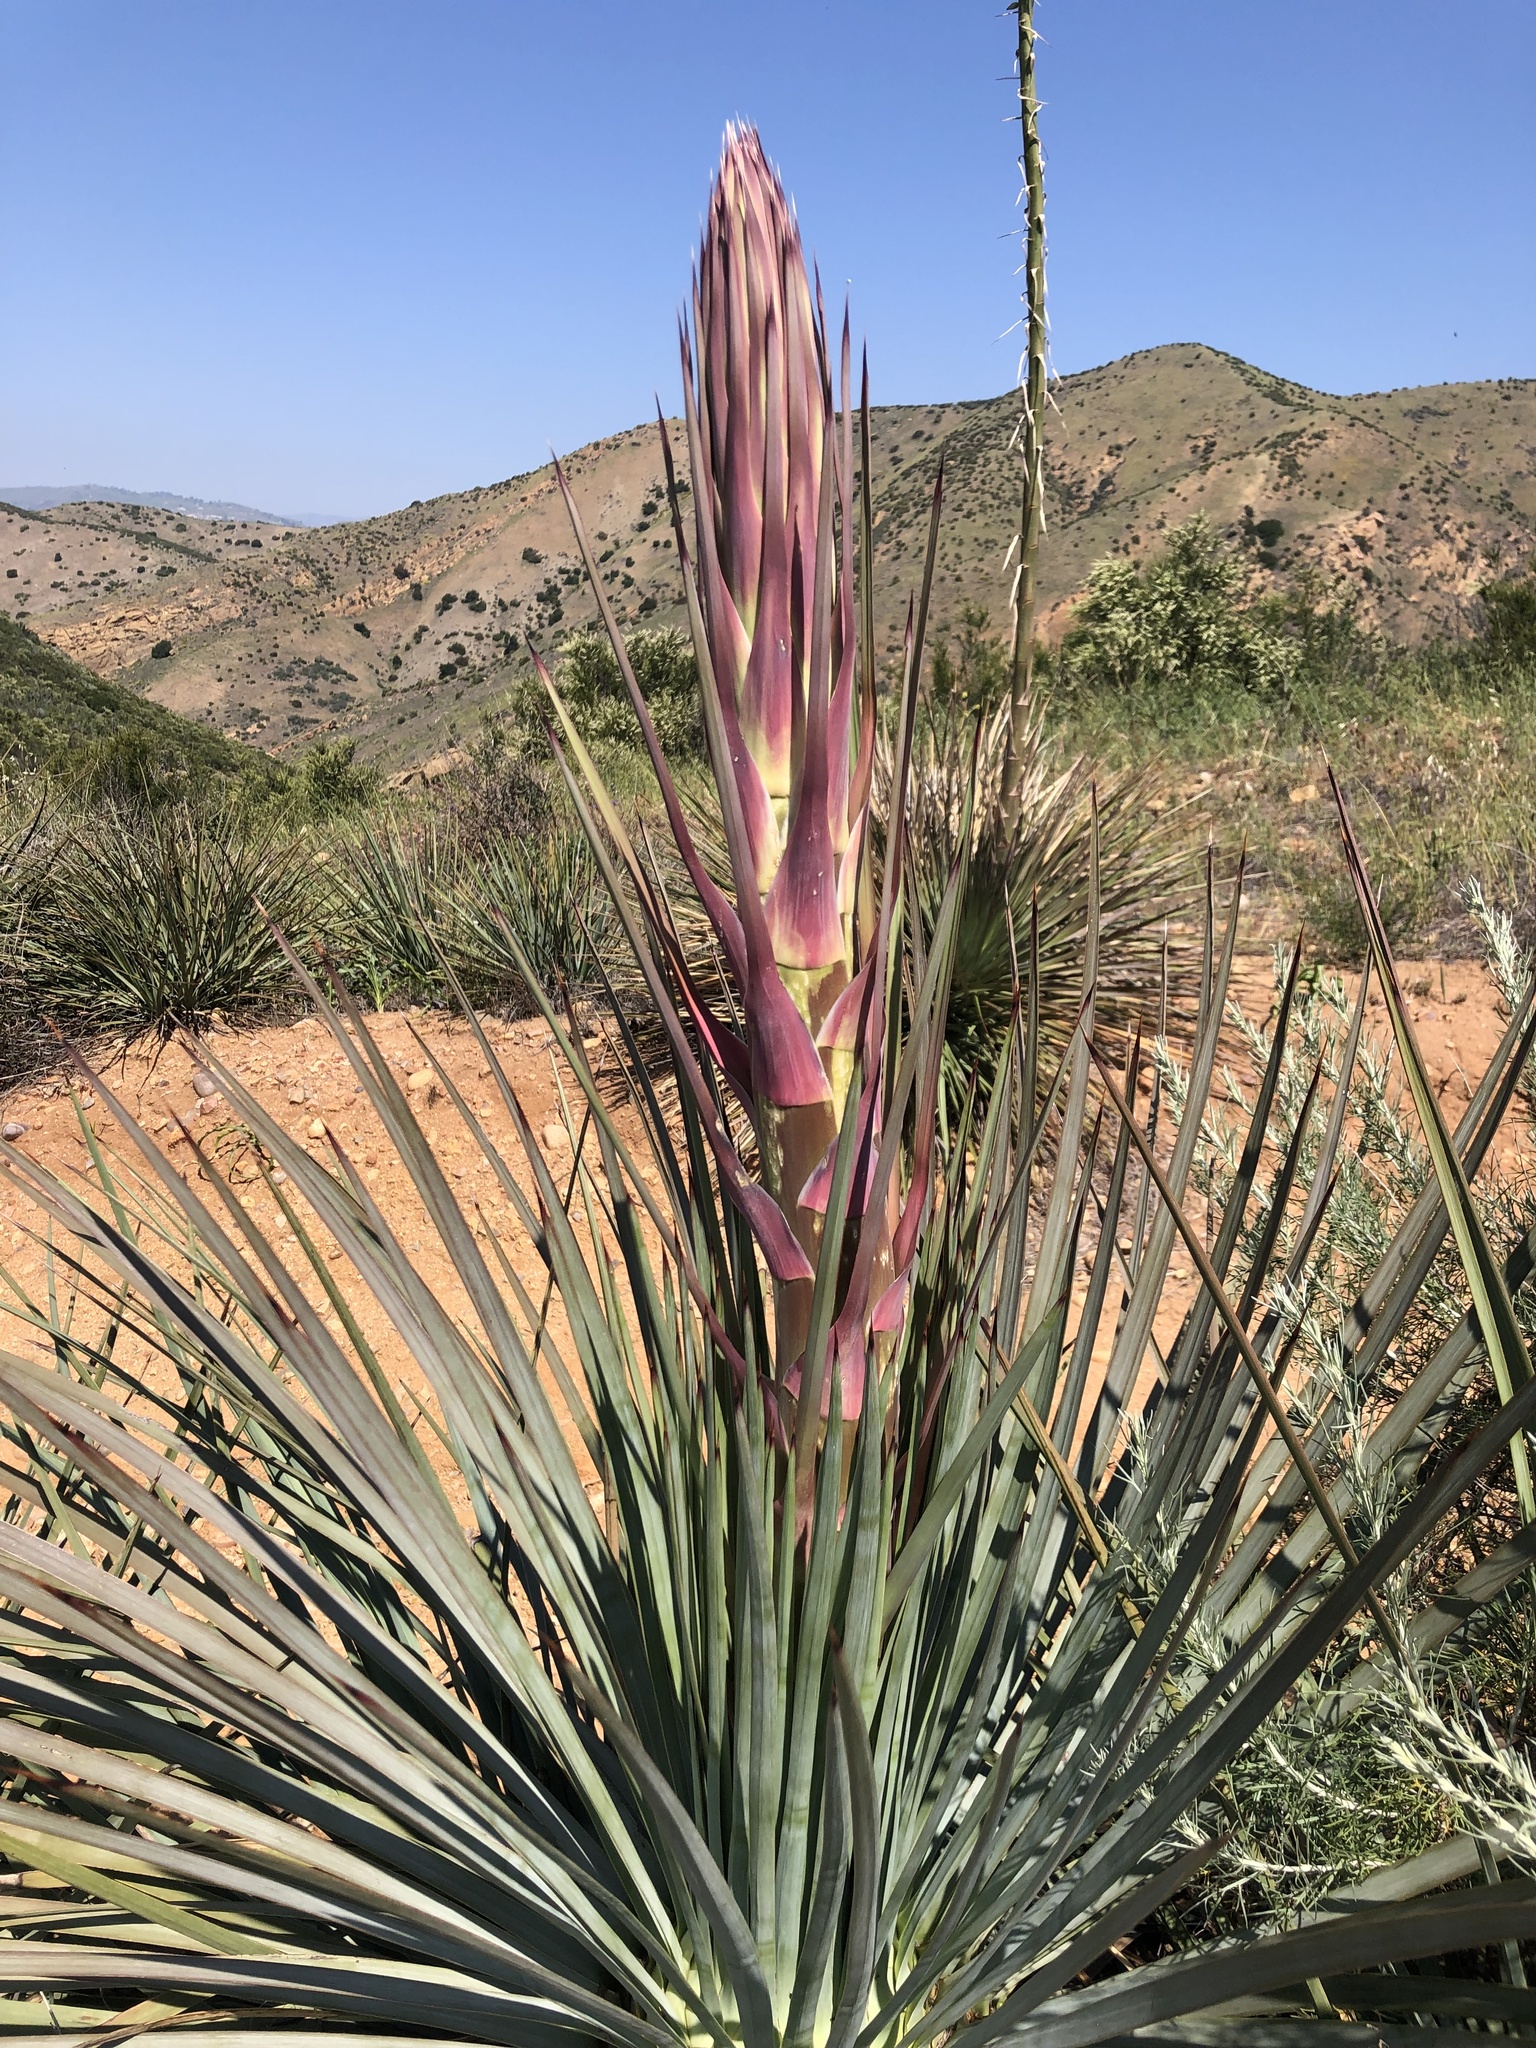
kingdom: Plantae
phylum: Tracheophyta
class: Liliopsida
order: Asparagales
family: Asparagaceae
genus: Hesperoyucca
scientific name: Hesperoyucca whipplei
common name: Our lord's-candle
